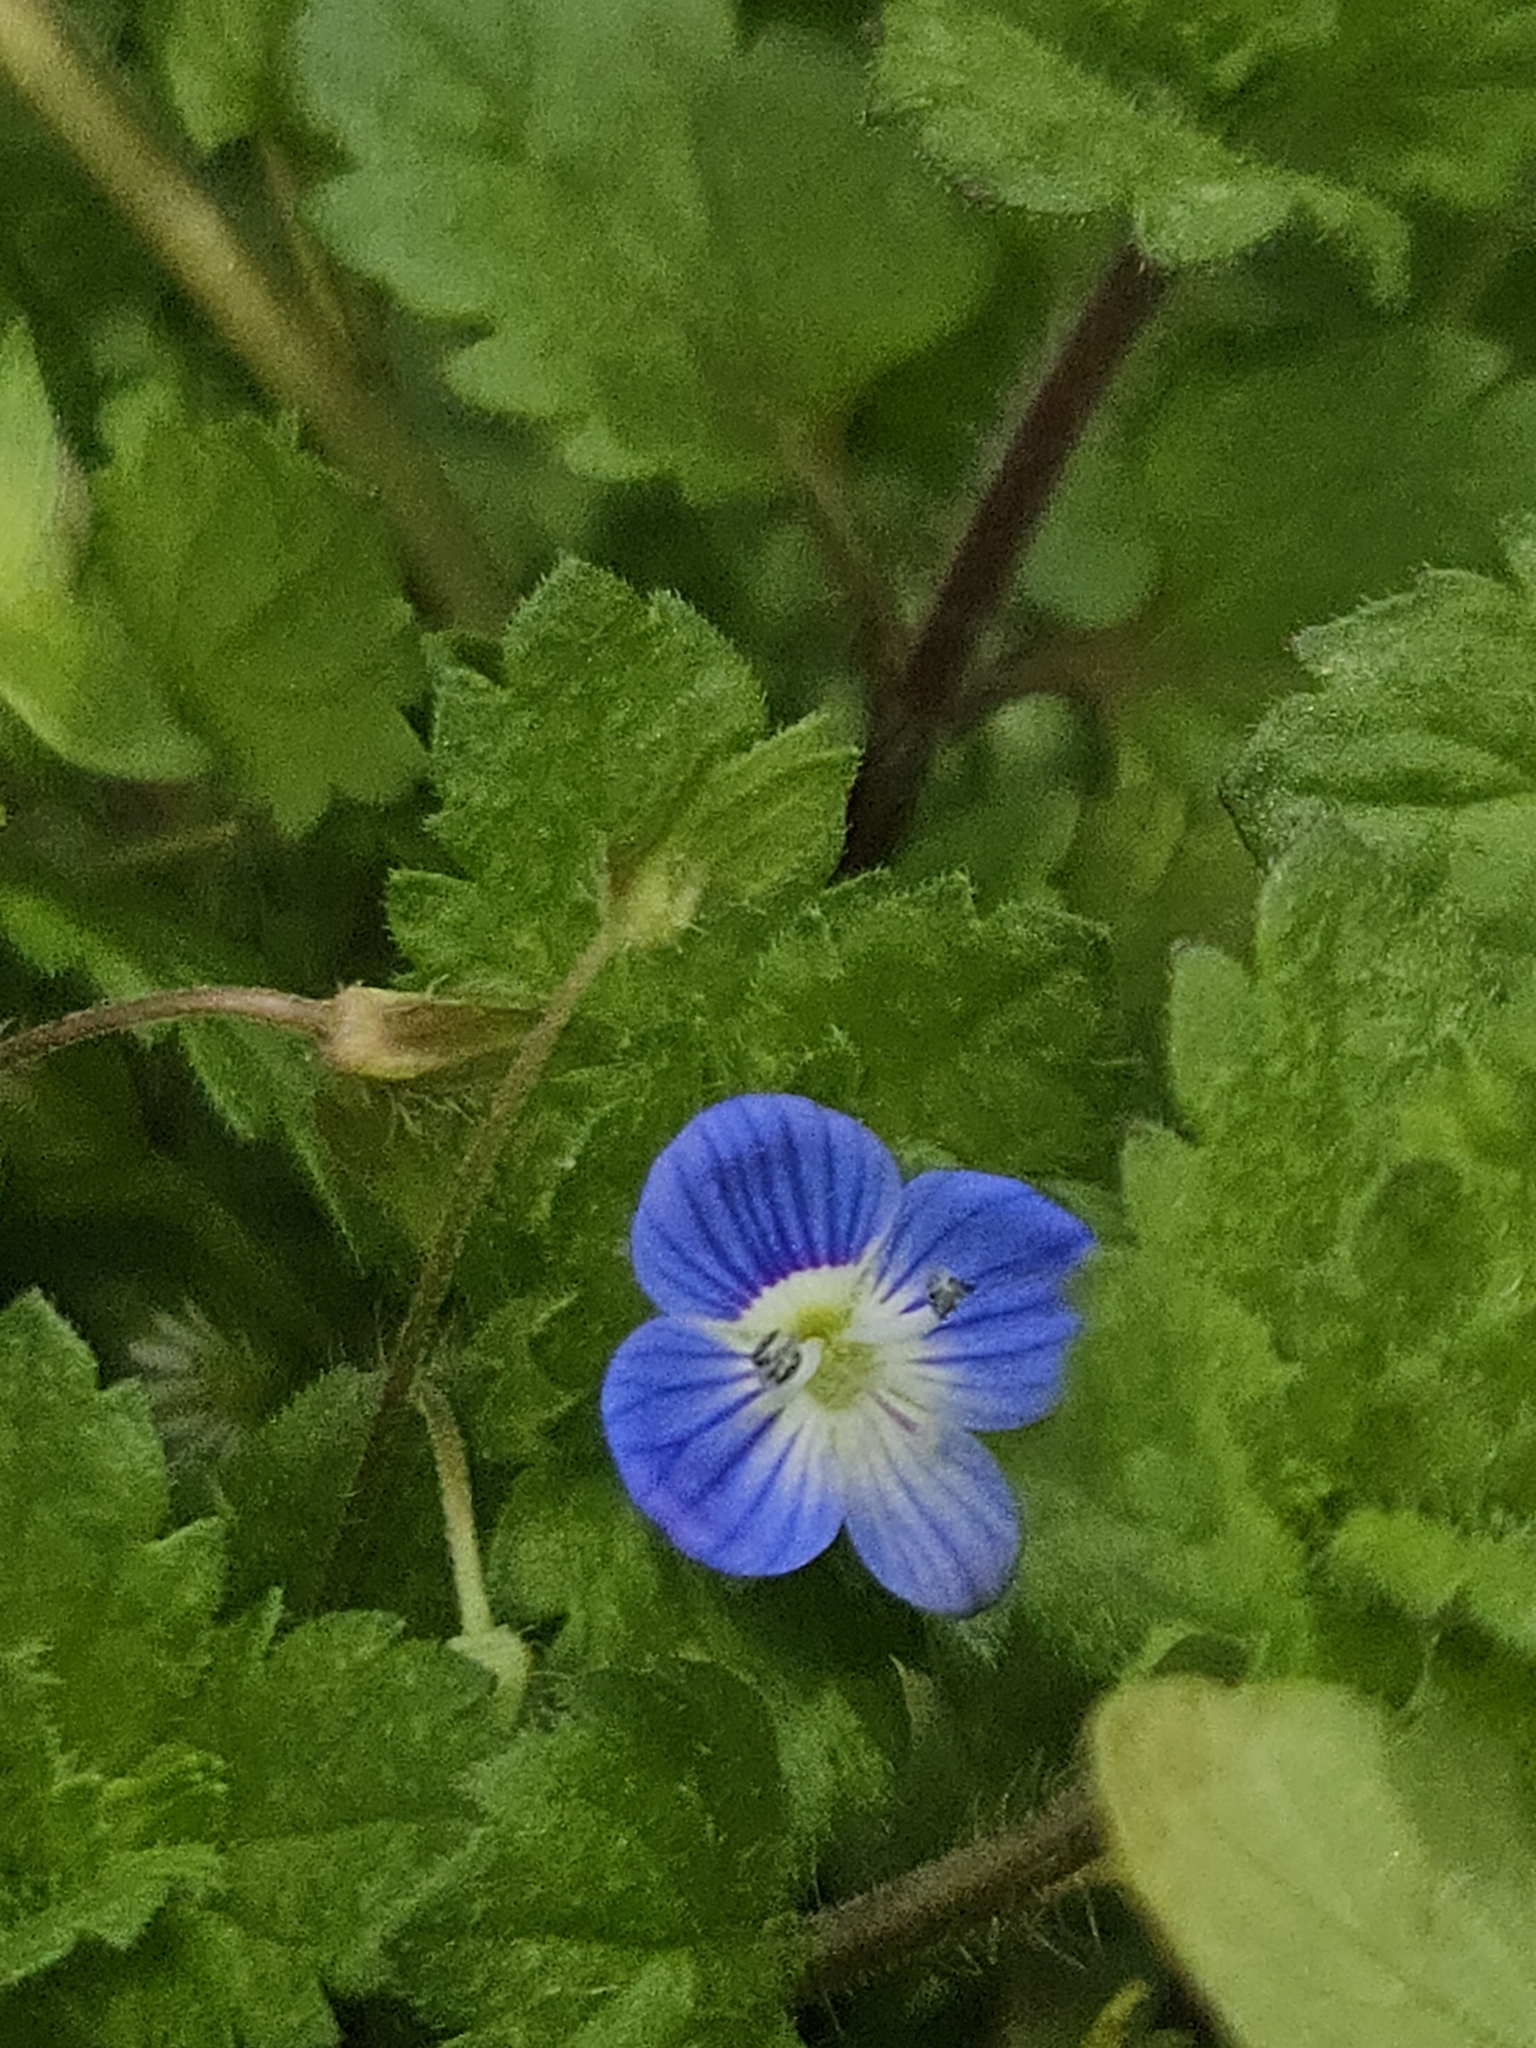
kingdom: Plantae
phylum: Tracheophyta
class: Magnoliopsida
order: Lamiales
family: Plantaginaceae
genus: Veronica
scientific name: Veronica persica
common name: Common field-speedwell
